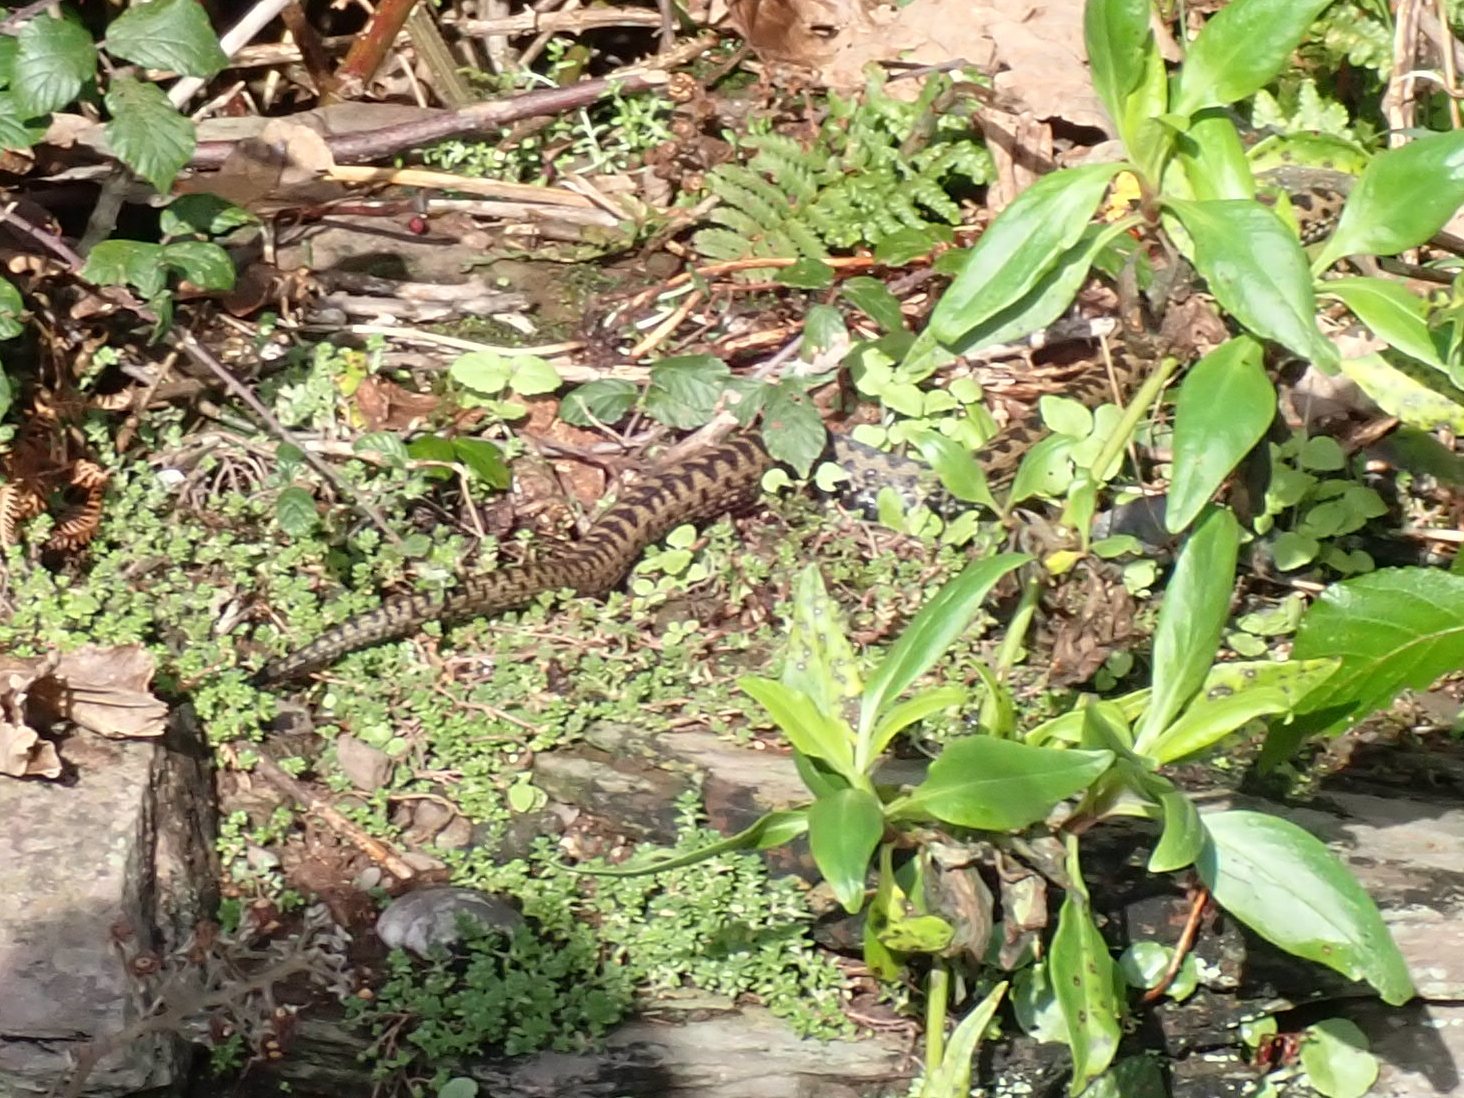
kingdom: Animalia
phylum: Chordata
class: Squamata
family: Viperidae
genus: Vipera
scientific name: Vipera berus
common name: Adder
